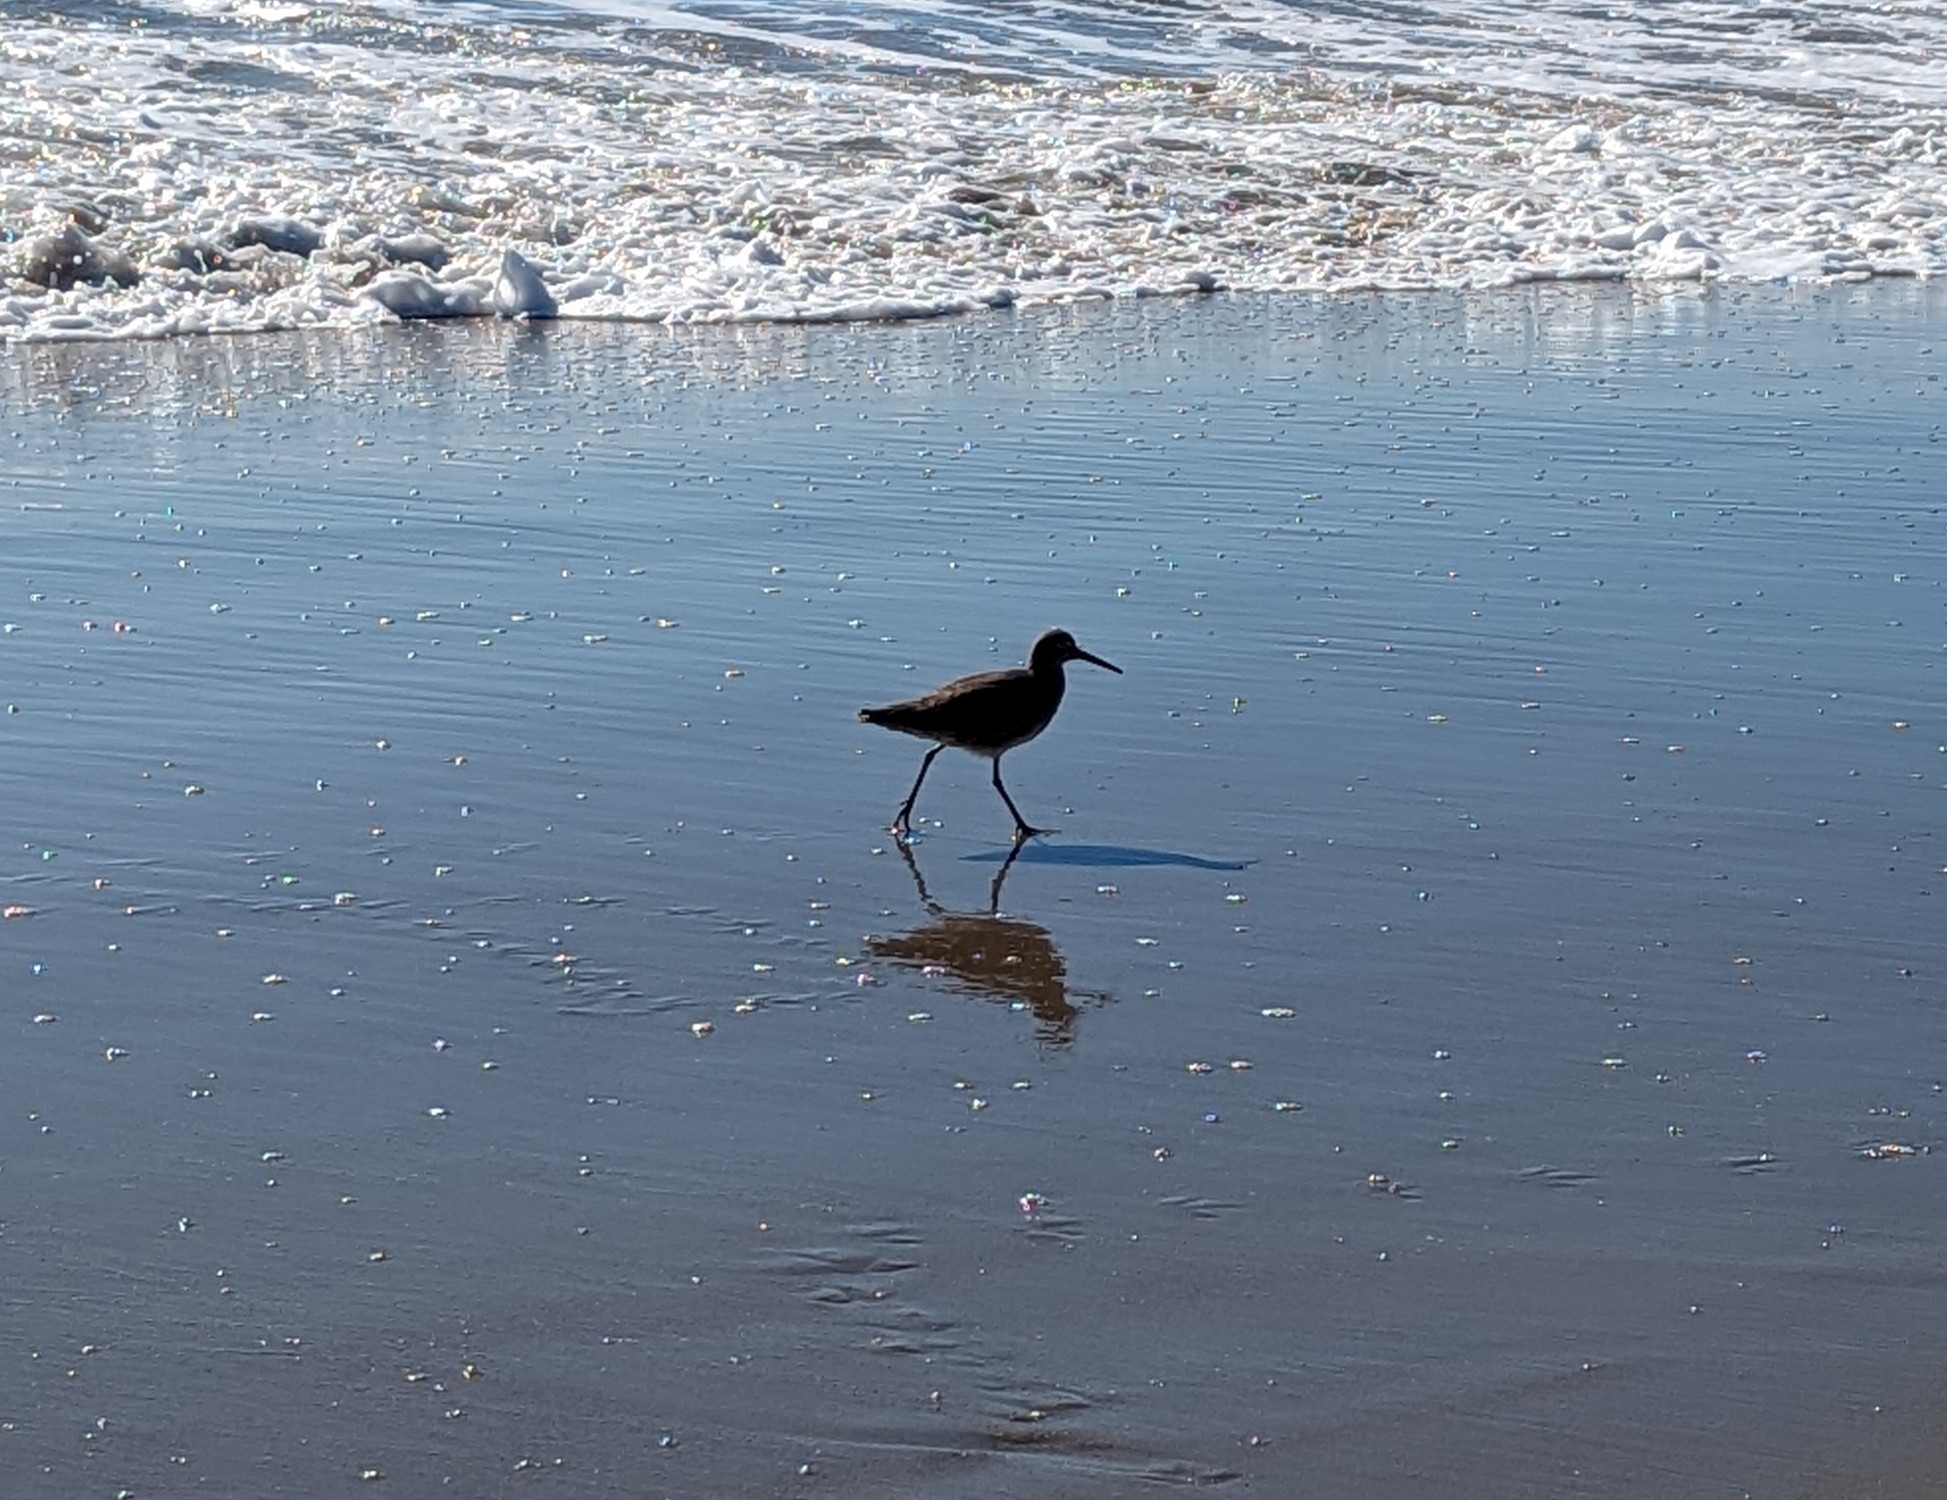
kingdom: Animalia
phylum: Chordata
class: Aves
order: Charadriiformes
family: Scolopacidae
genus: Tringa
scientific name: Tringa semipalmata
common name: Willet
